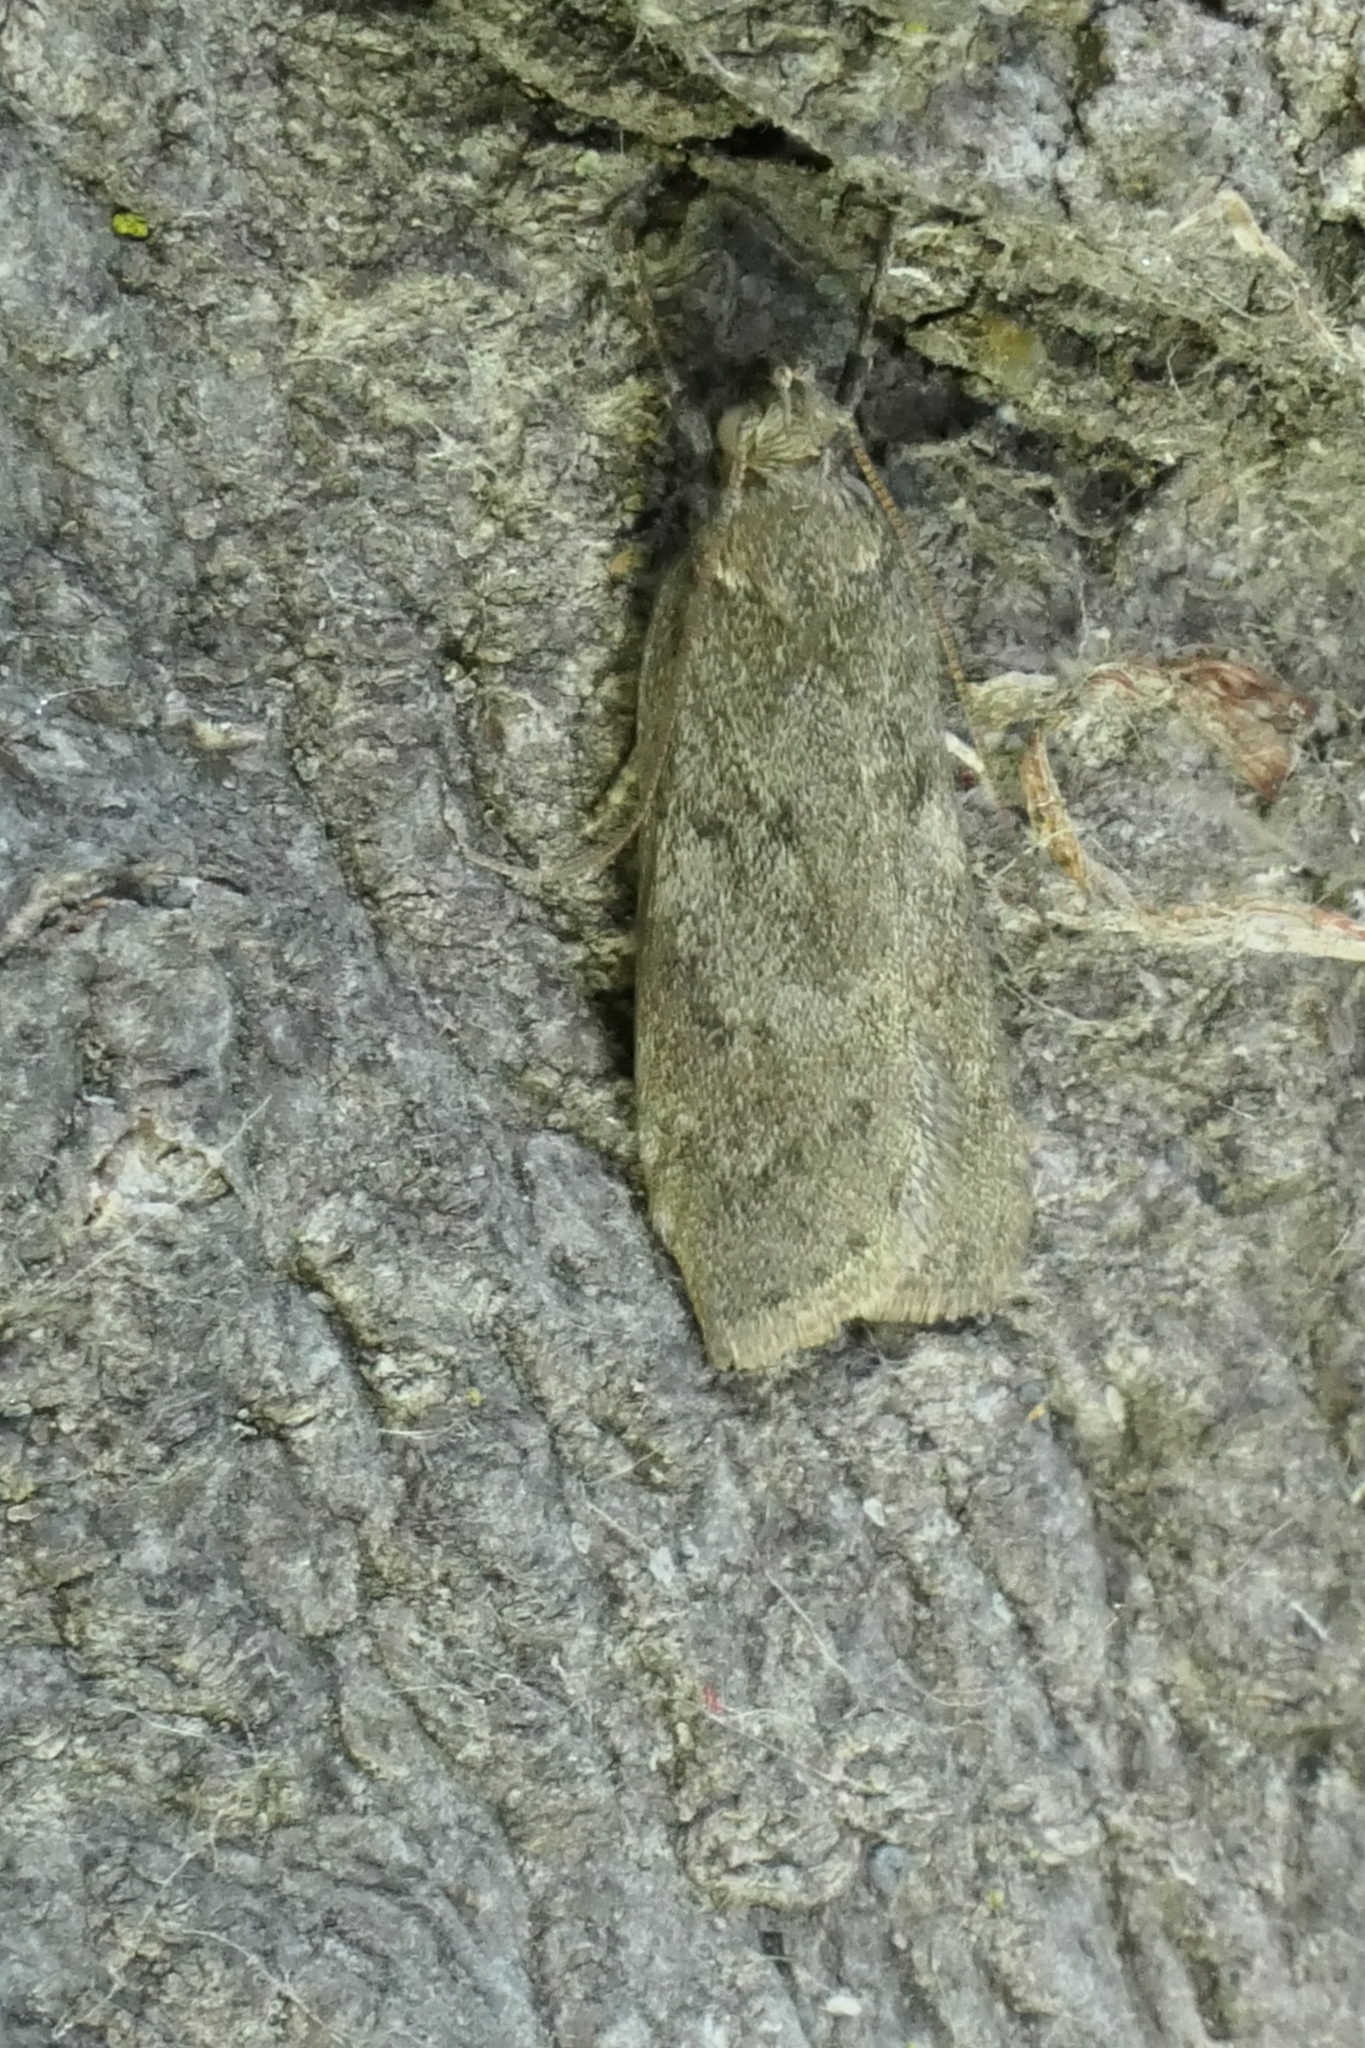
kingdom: Animalia
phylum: Arthropoda
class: Insecta
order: Lepidoptera
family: Depressariidae
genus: Phaeosaces
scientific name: Phaeosaces apocrypta
